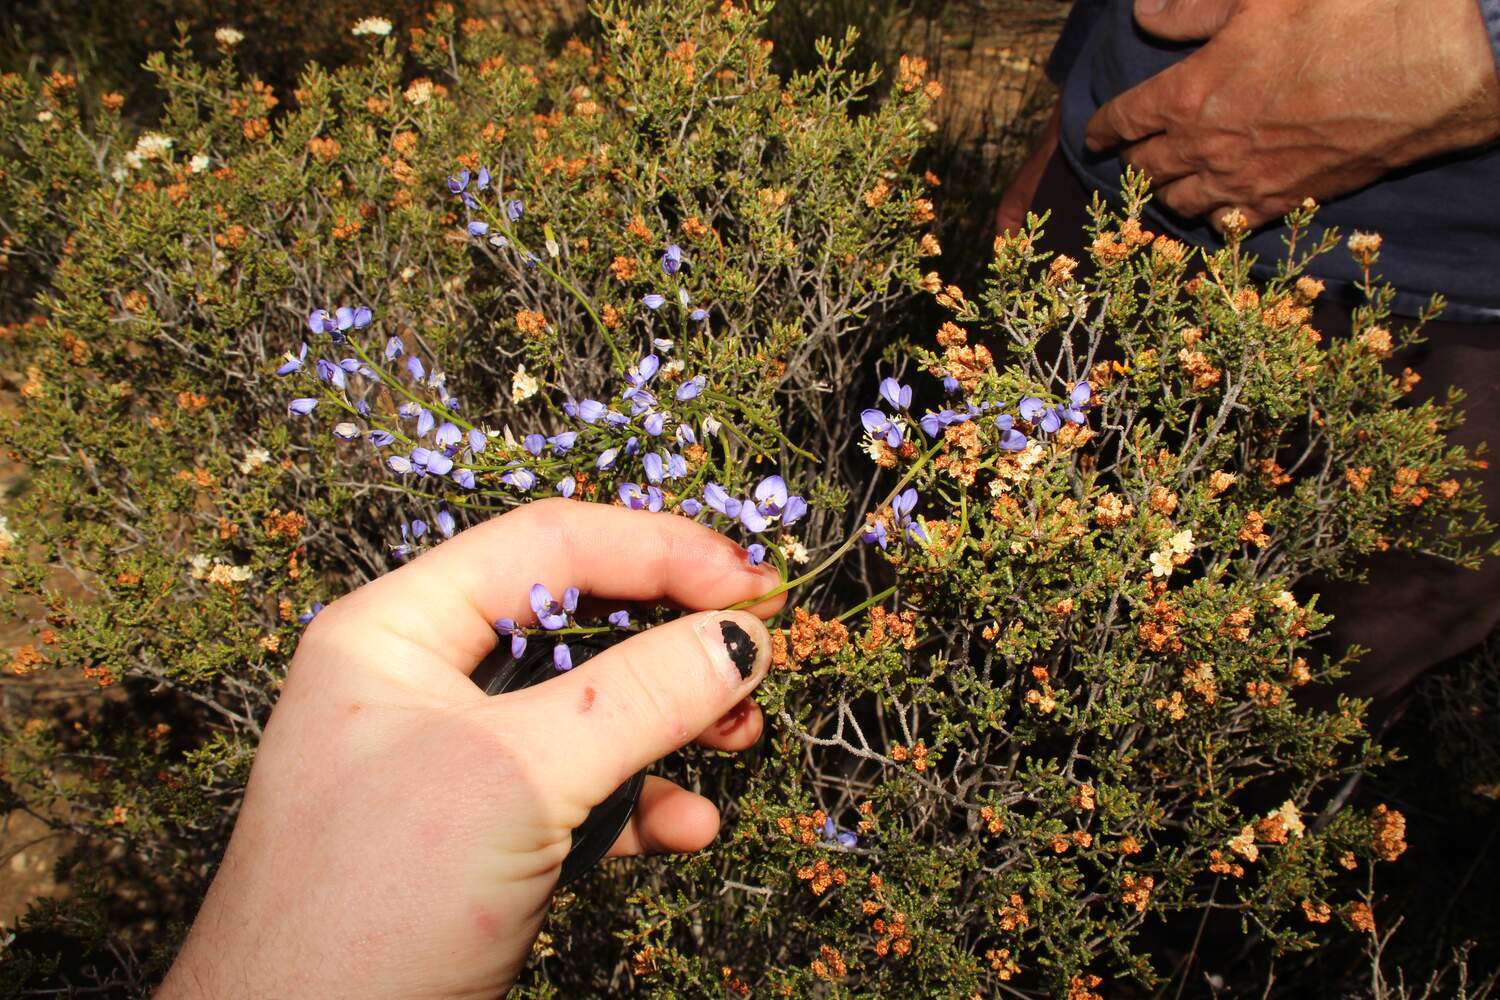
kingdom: Plantae
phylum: Tracheophyta
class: Magnoliopsida
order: Fabales
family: Polygalaceae
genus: Comesperma
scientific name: Comesperma volubile
